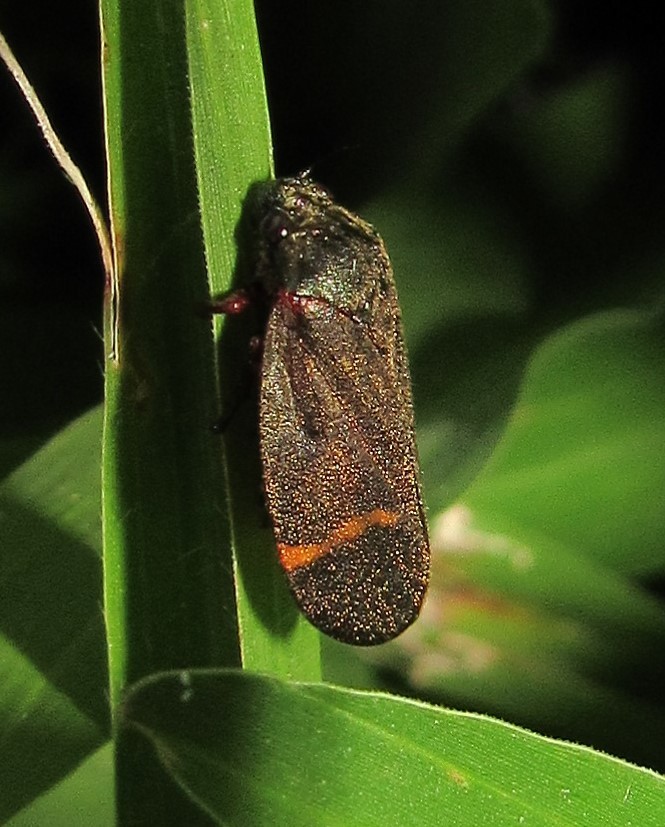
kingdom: Animalia
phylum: Arthropoda
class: Insecta
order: Hemiptera
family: Cercopidae
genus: Deois
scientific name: Deois schach
